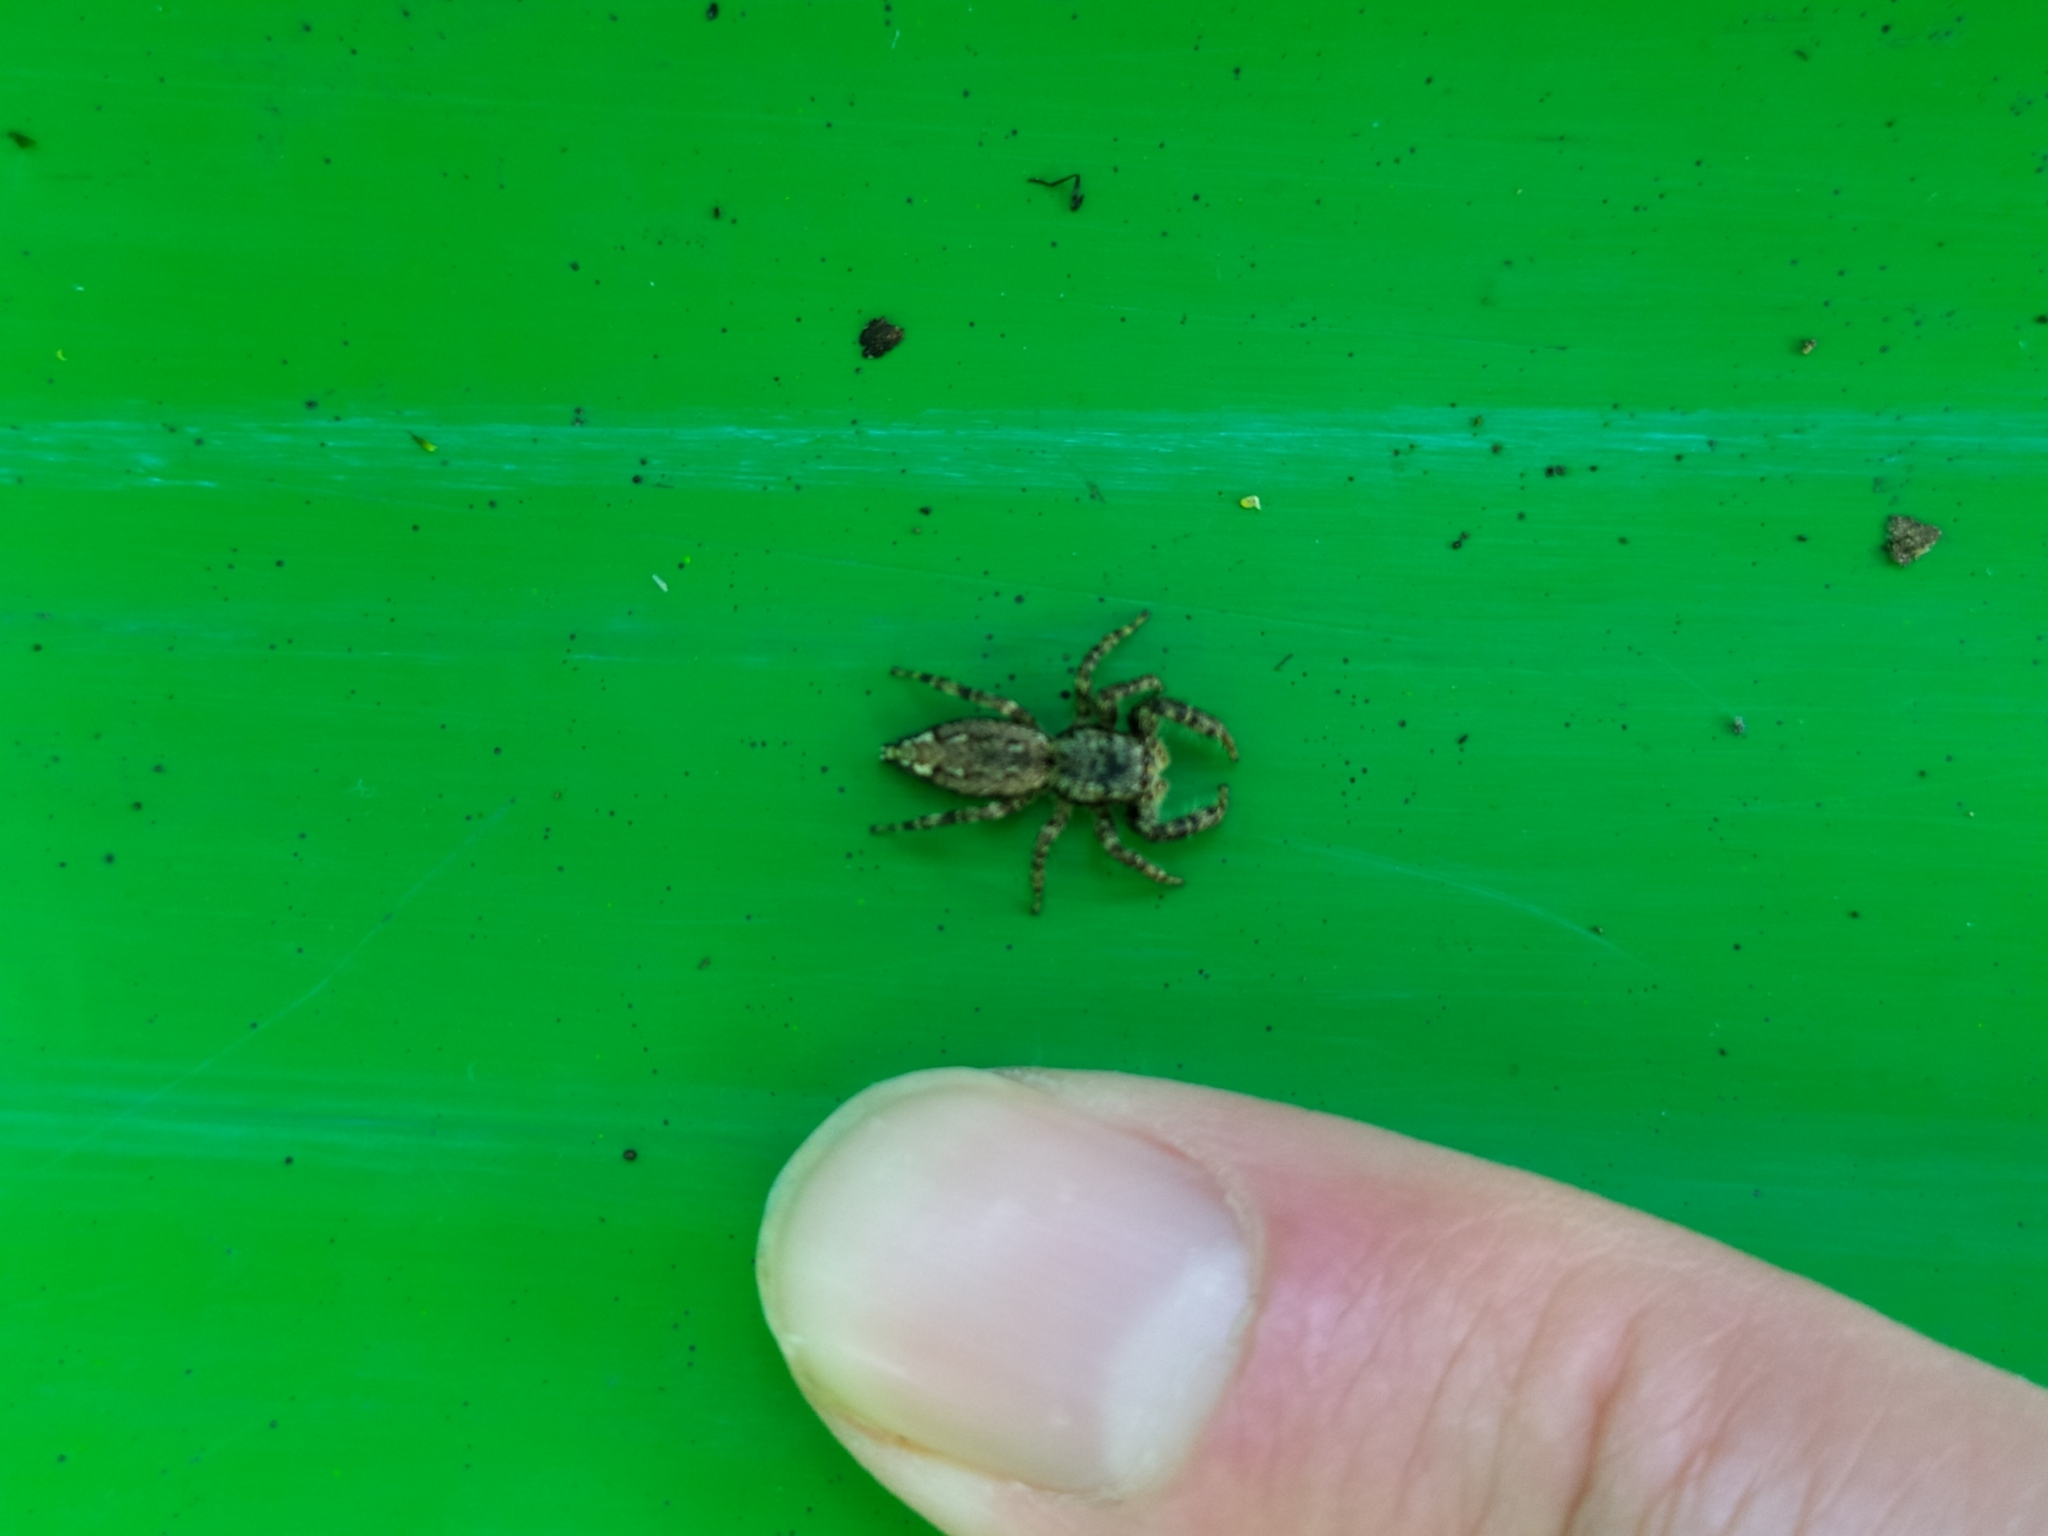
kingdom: Animalia
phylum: Arthropoda
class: Arachnida
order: Araneae
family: Salticidae
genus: Marpissa
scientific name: Marpissa muscosa
